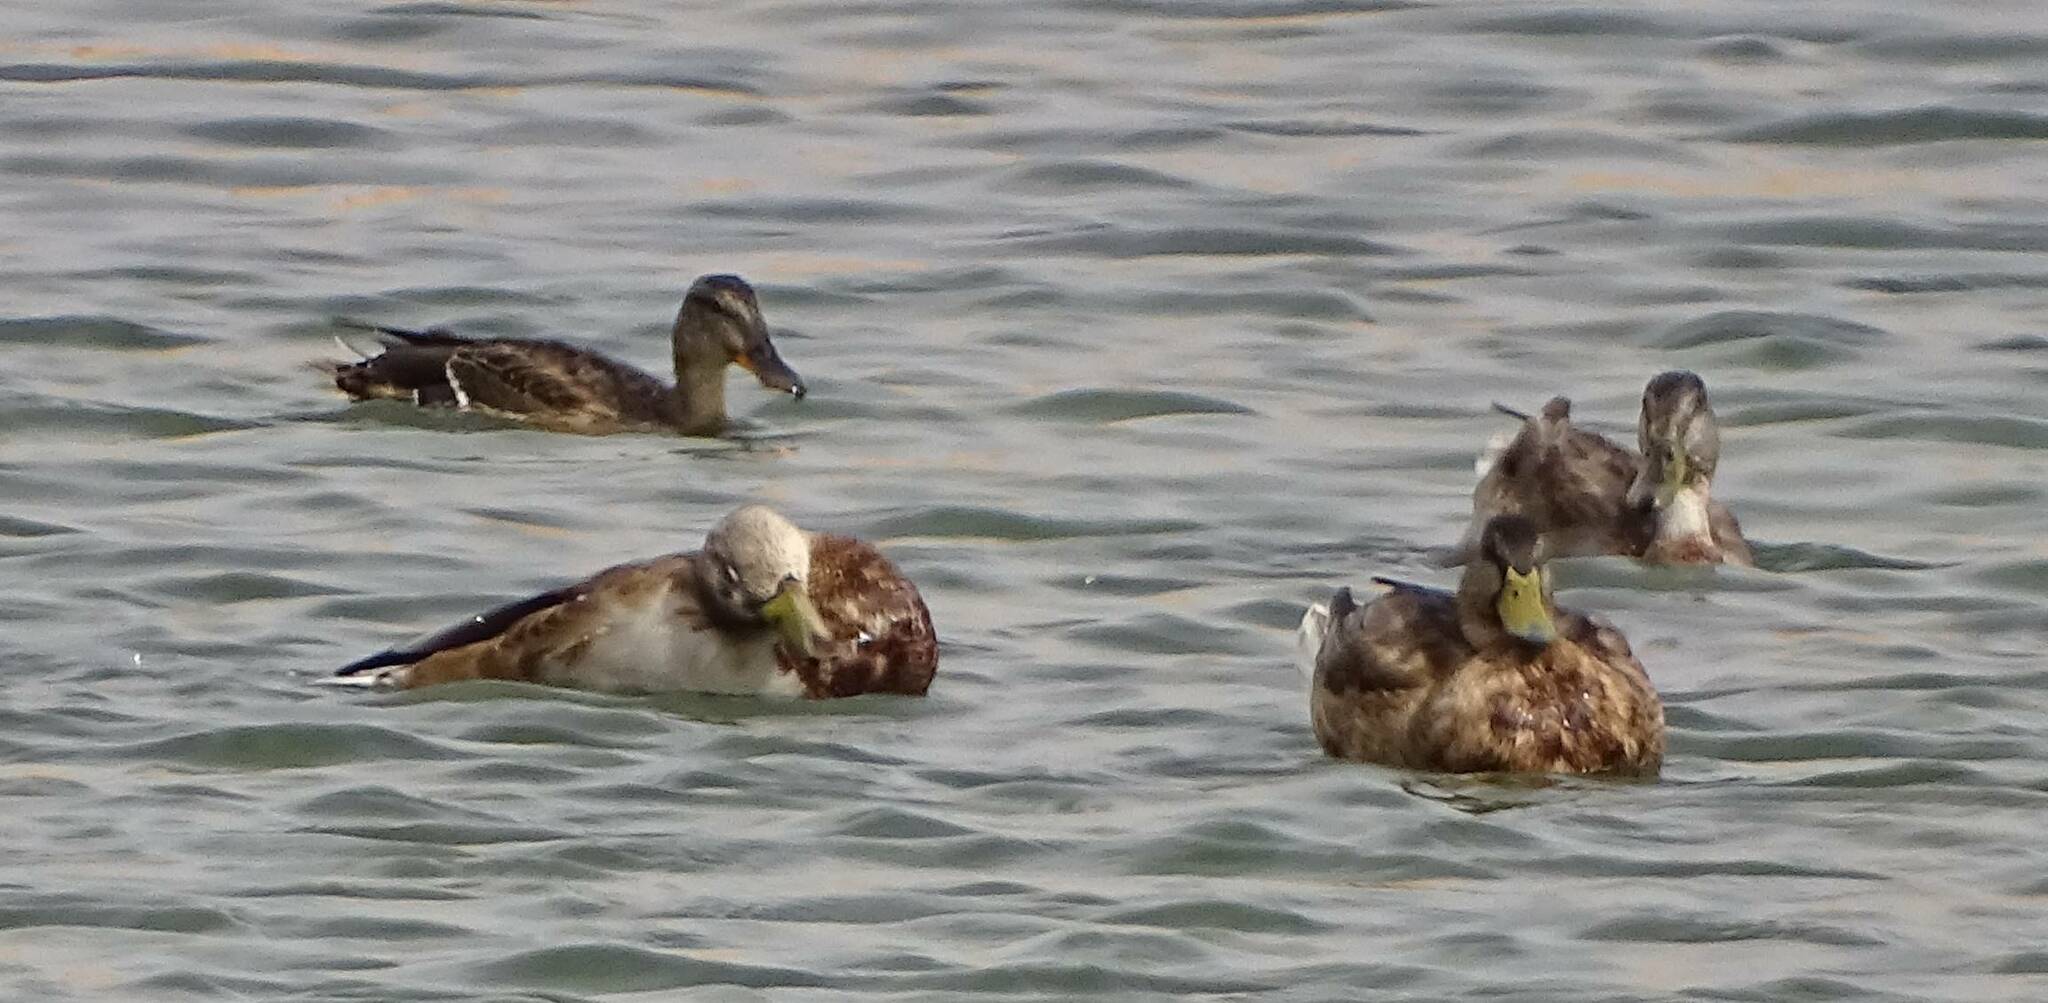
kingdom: Animalia
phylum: Chordata
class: Aves
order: Anseriformes
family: Anatidae
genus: Anas
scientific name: Anas platyrhynchos
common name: Mallard
